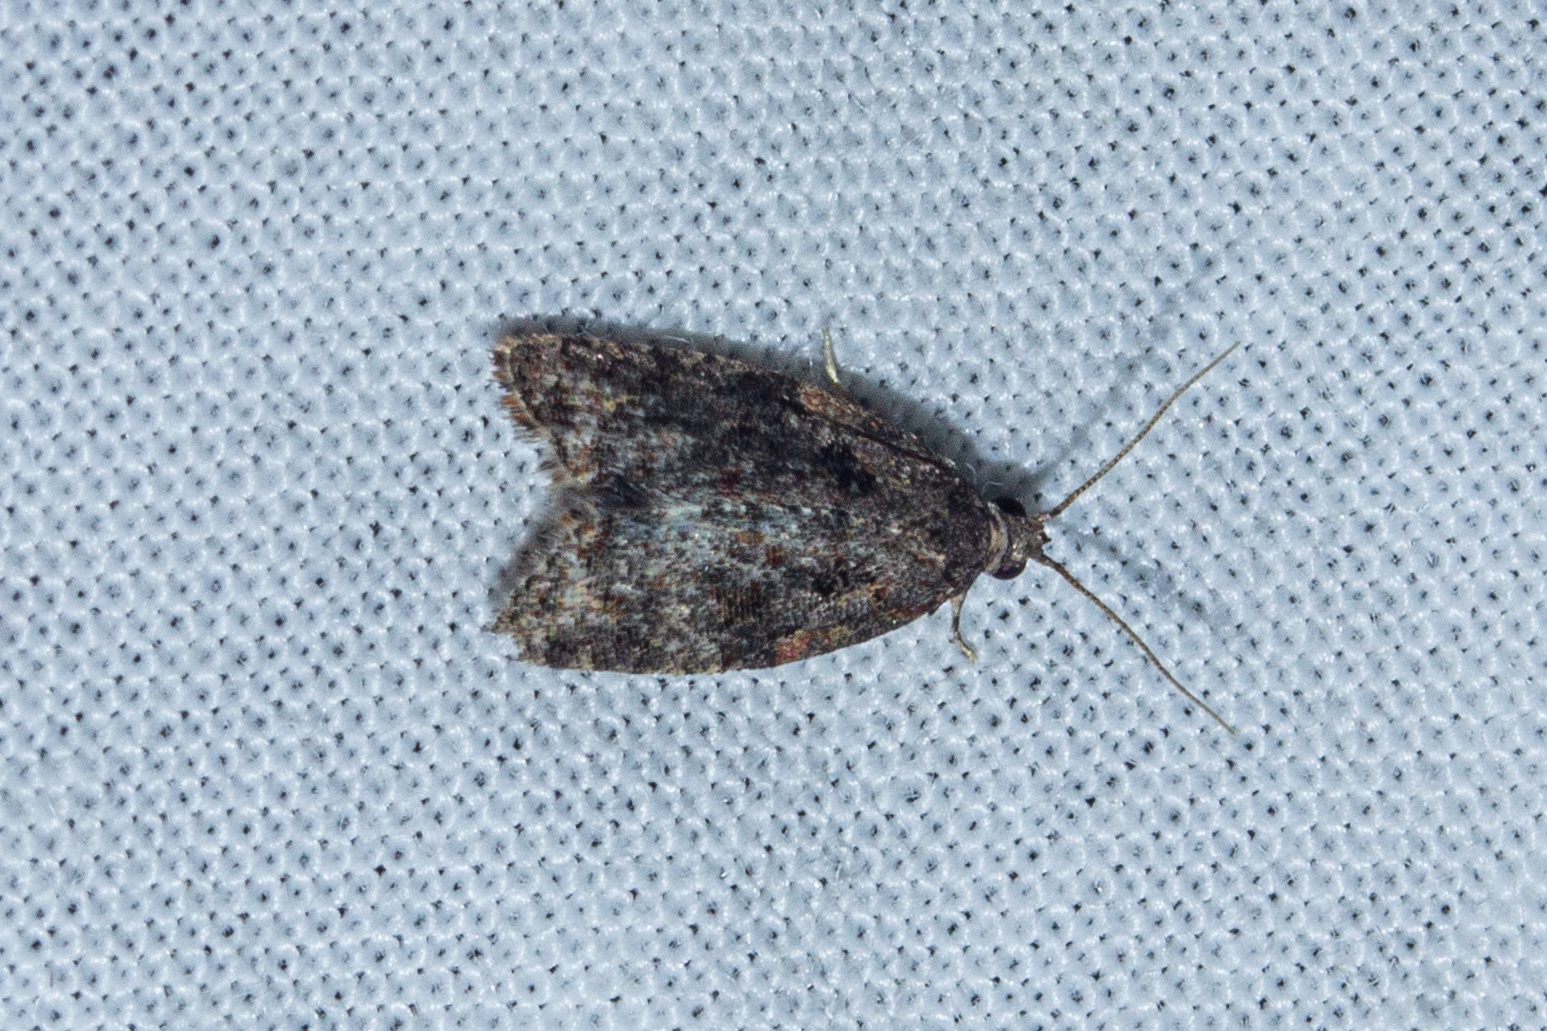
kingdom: Animalia
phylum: Arthropoda
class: Insecta
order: Lepidoptera
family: Tortricidae
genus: Capua
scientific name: Capua intractana
